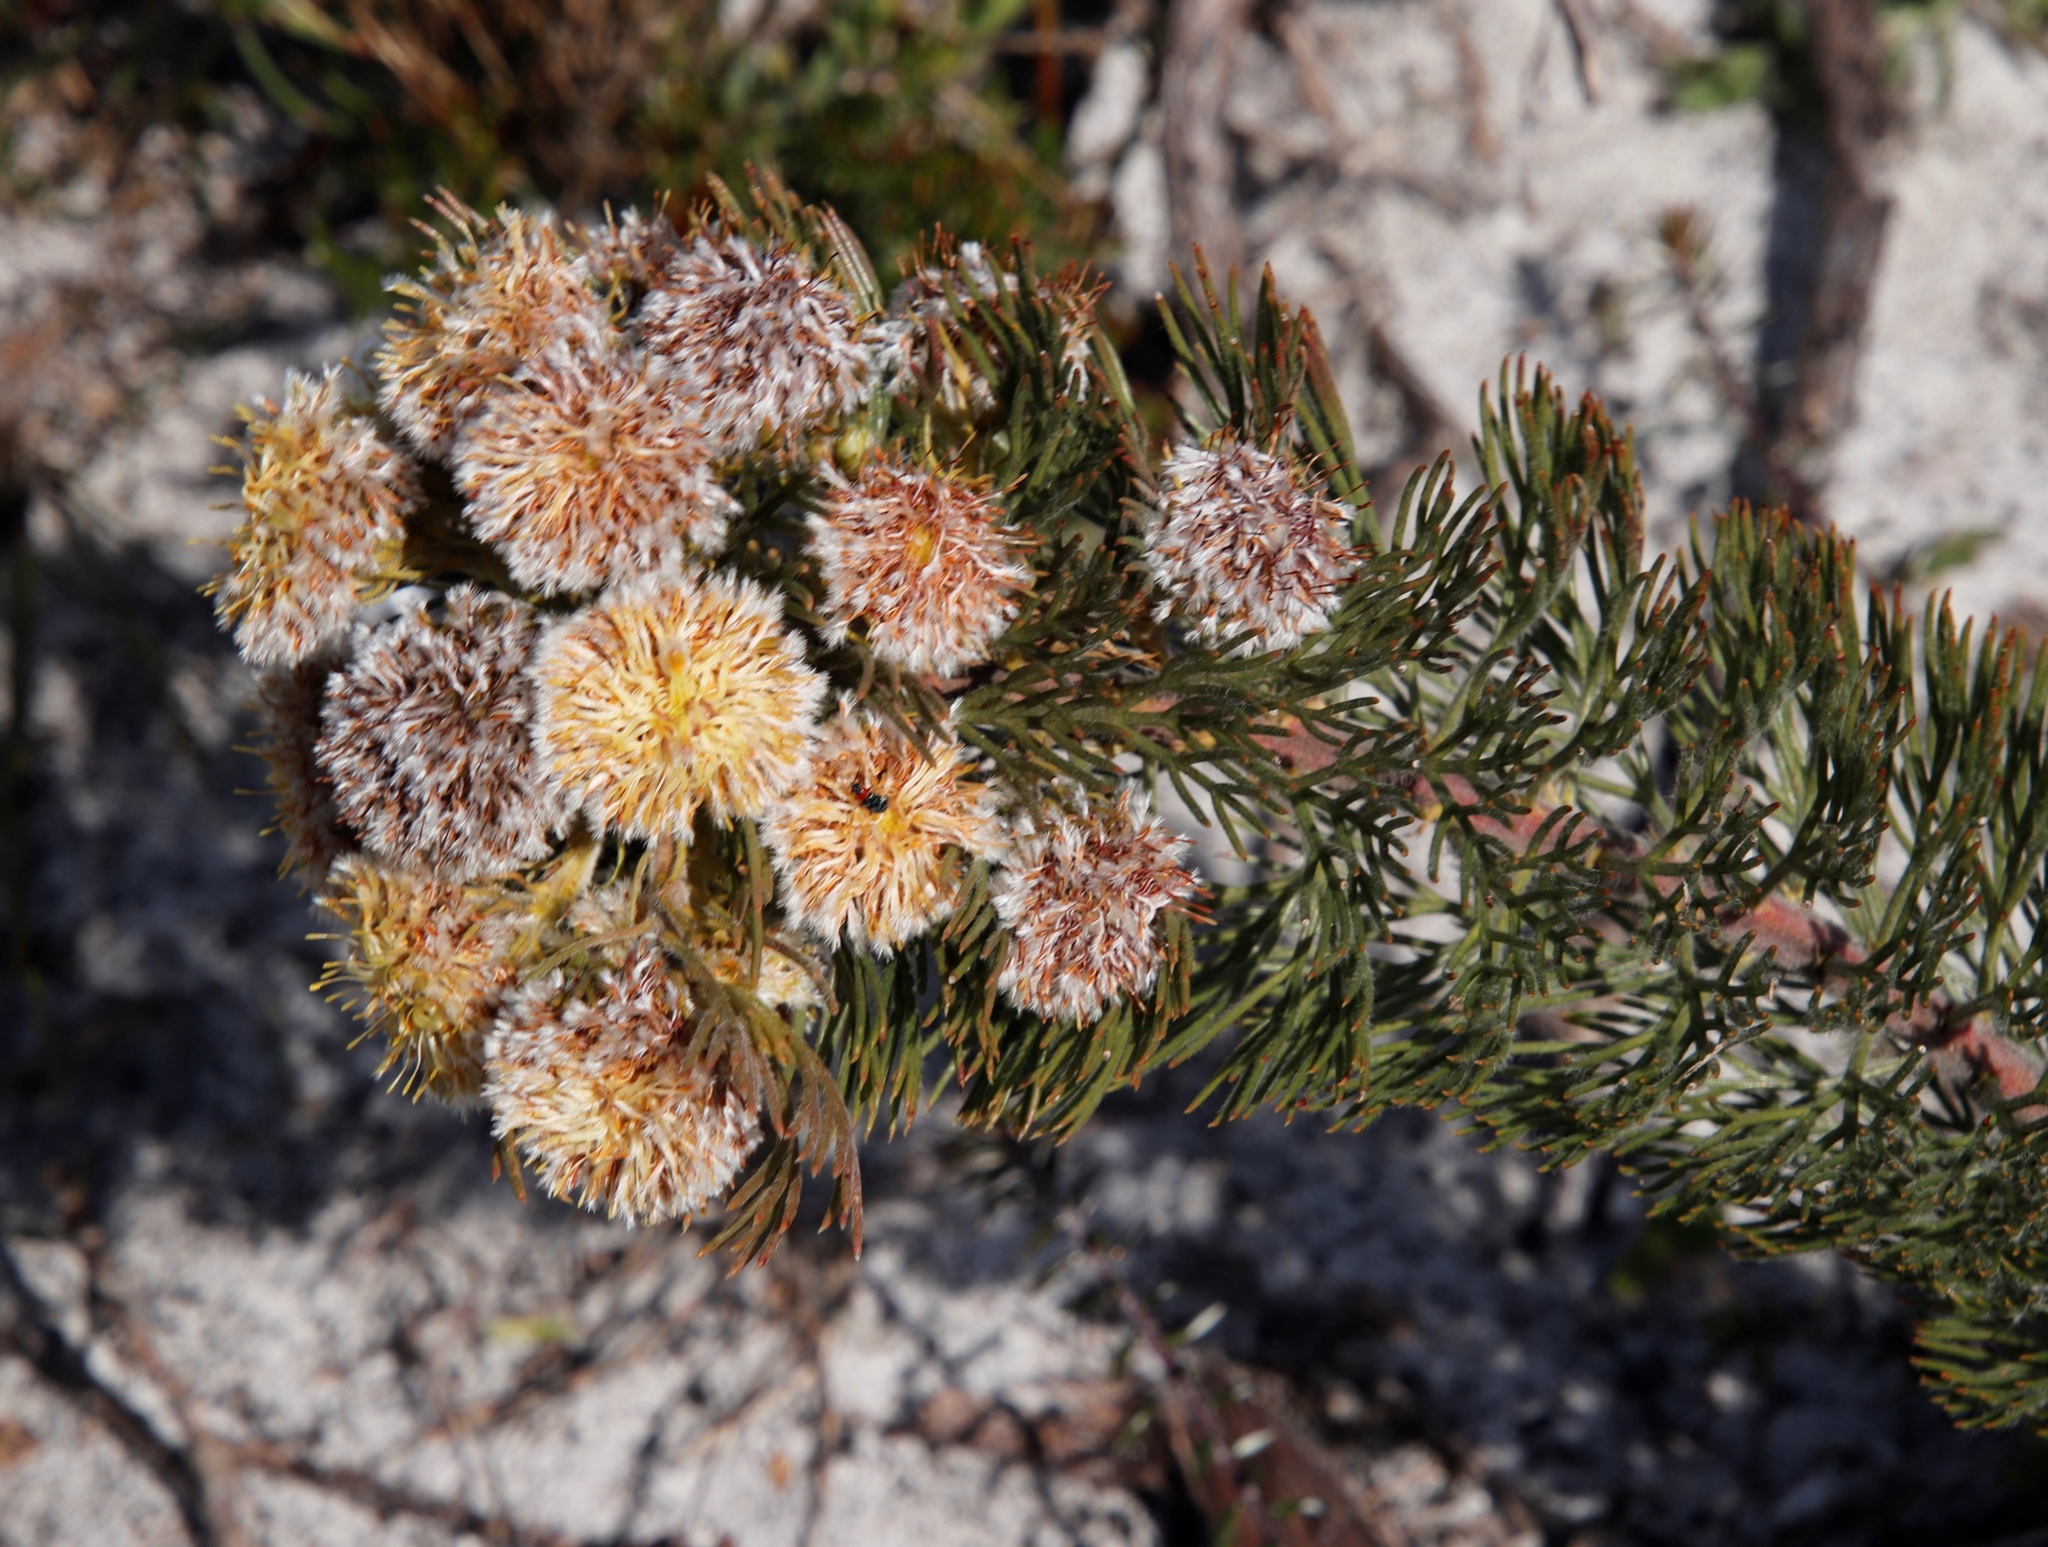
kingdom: Plantae
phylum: Tracheophyta
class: Magnoliopsida
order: Proteales
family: Proteaceae
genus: Serruria
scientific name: Serruria
